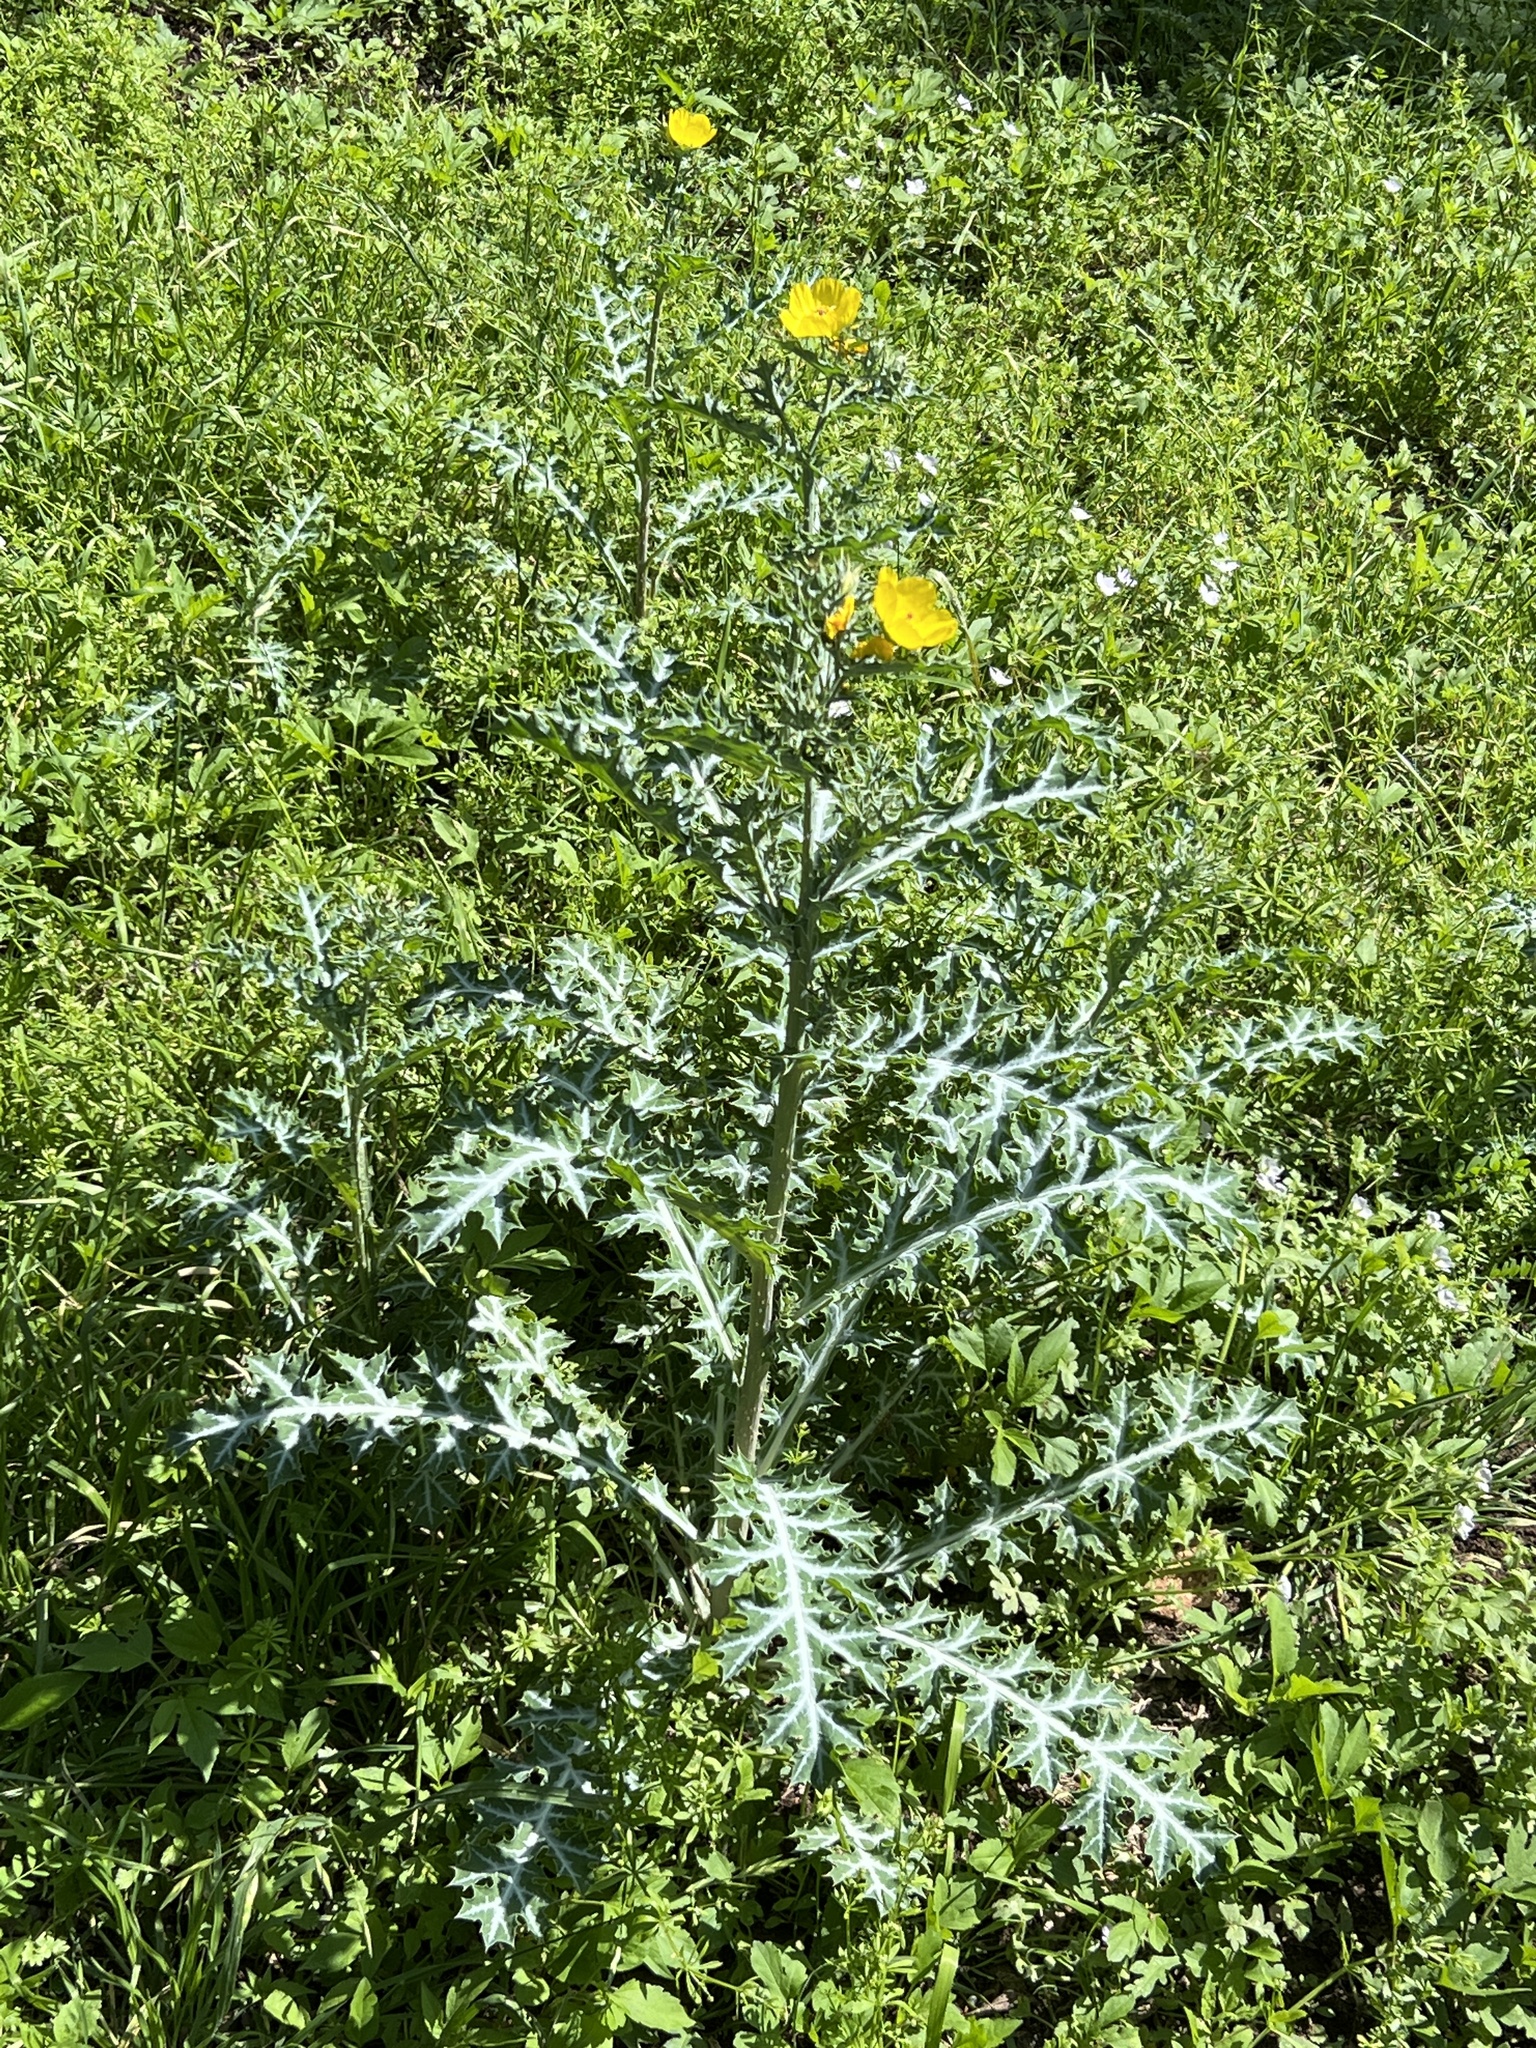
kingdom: Plantae
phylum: Tracheophyta
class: Magnoliopsida
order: Ranunculales
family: Papaveraceae
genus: Argemone
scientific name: Argemone mexicana
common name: Mexican poppy
